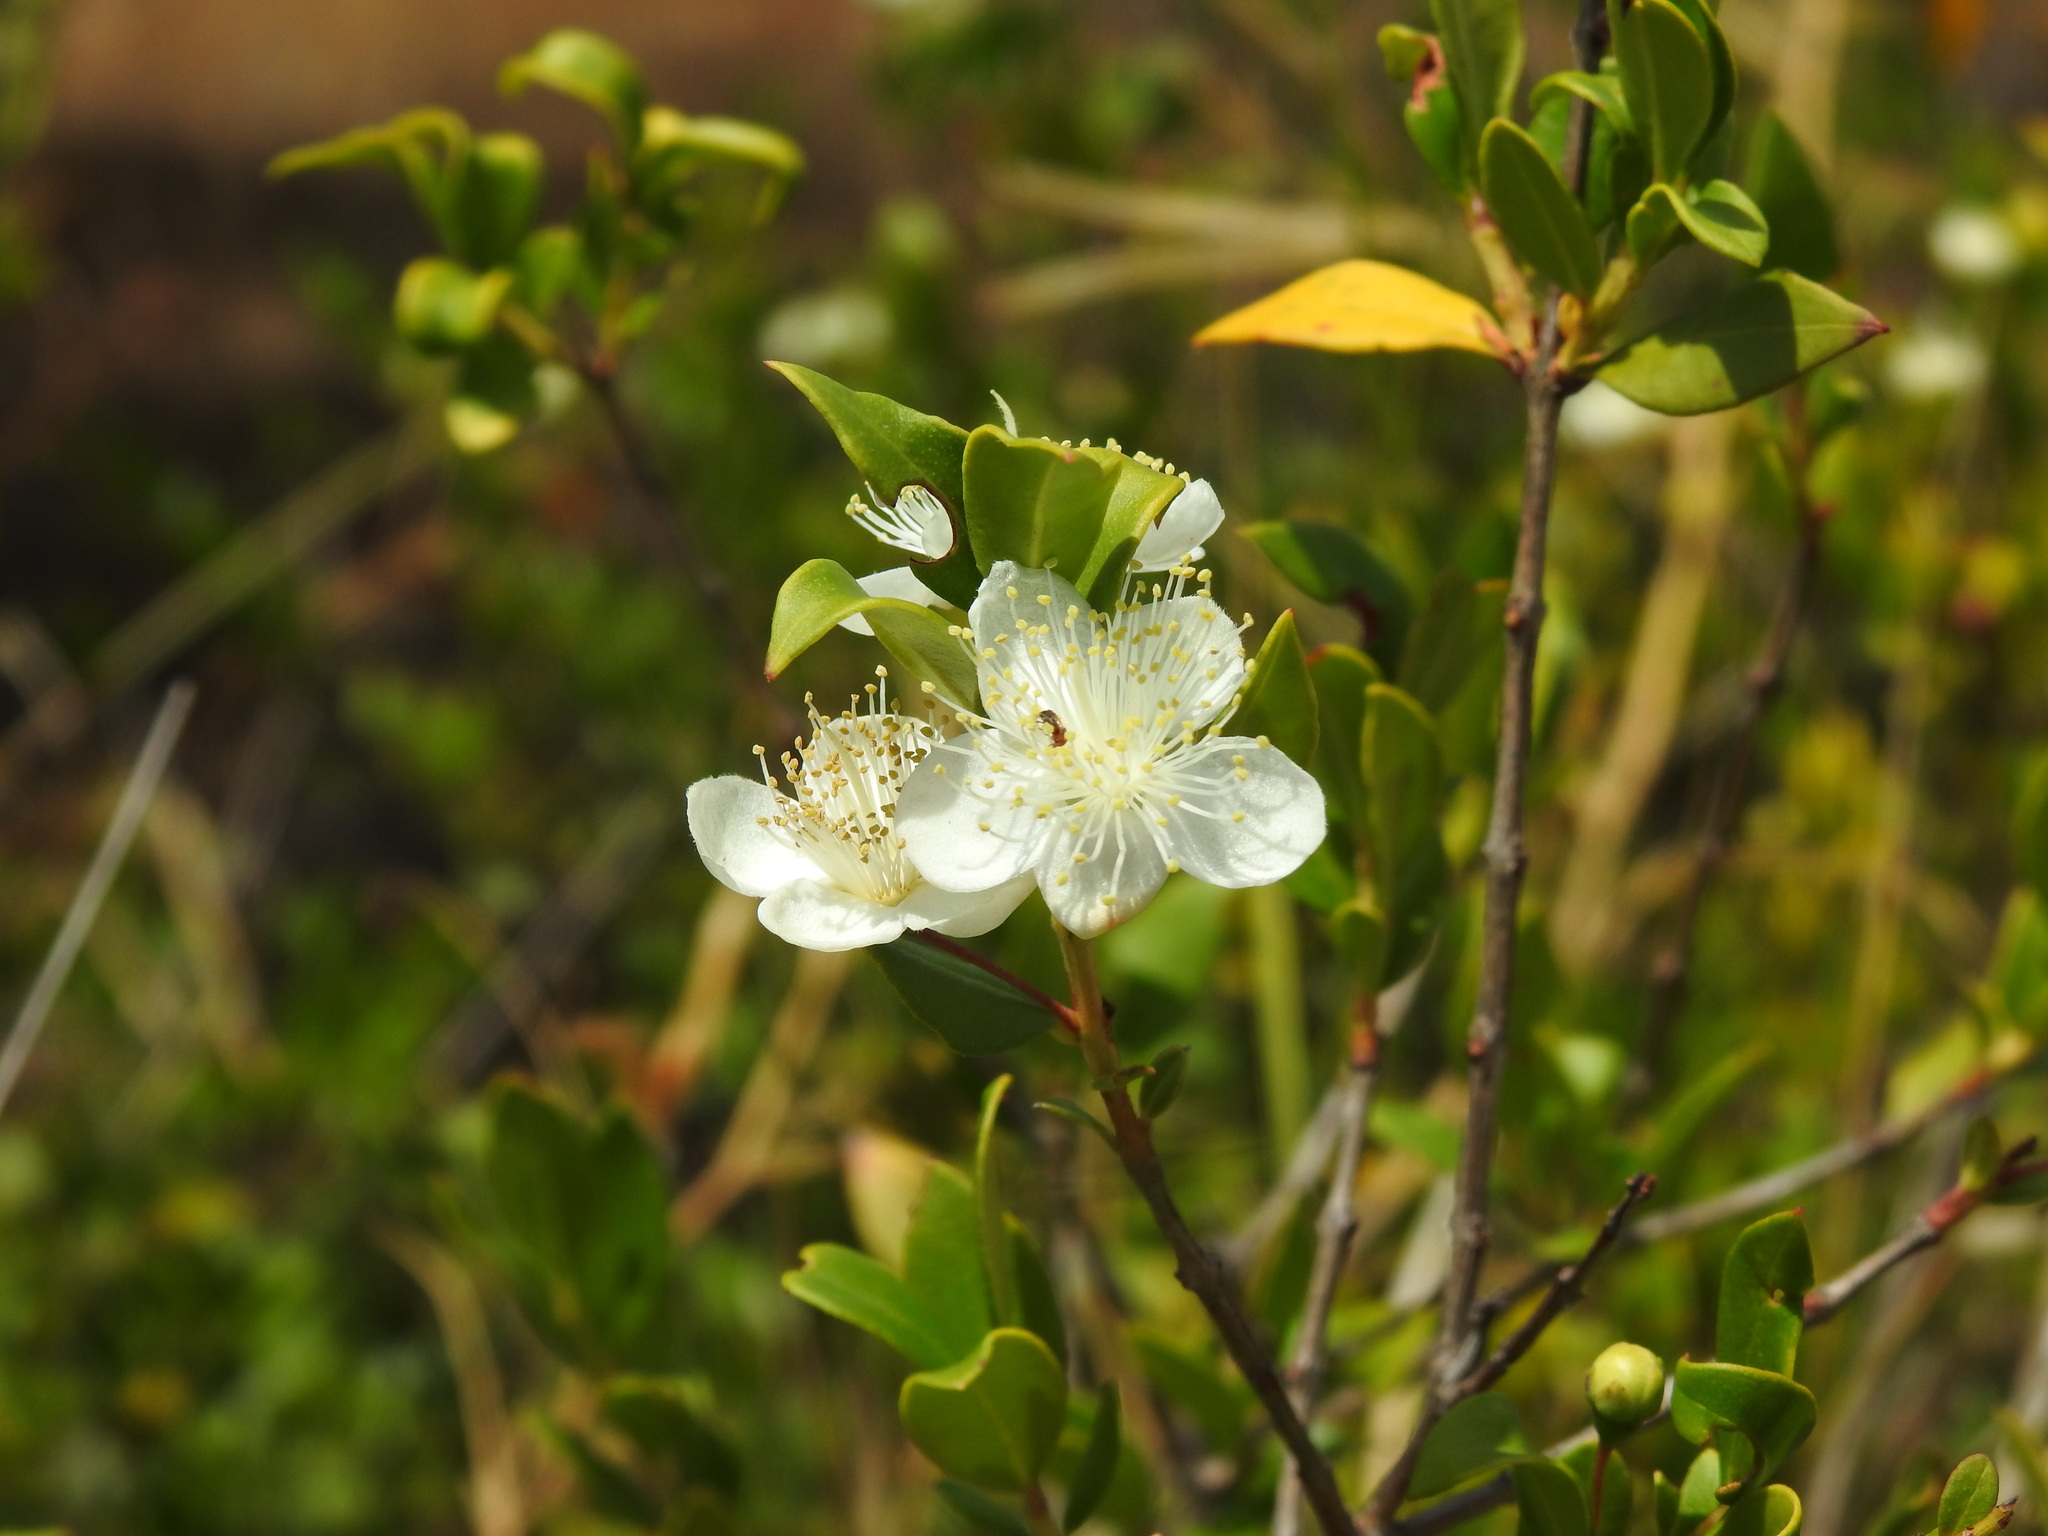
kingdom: Plantae
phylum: Tracheophyta
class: Magnoliopsida
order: Myrtales
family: Myrtaceae
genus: Myrtus
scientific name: Myrtus communis
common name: Myrtle
